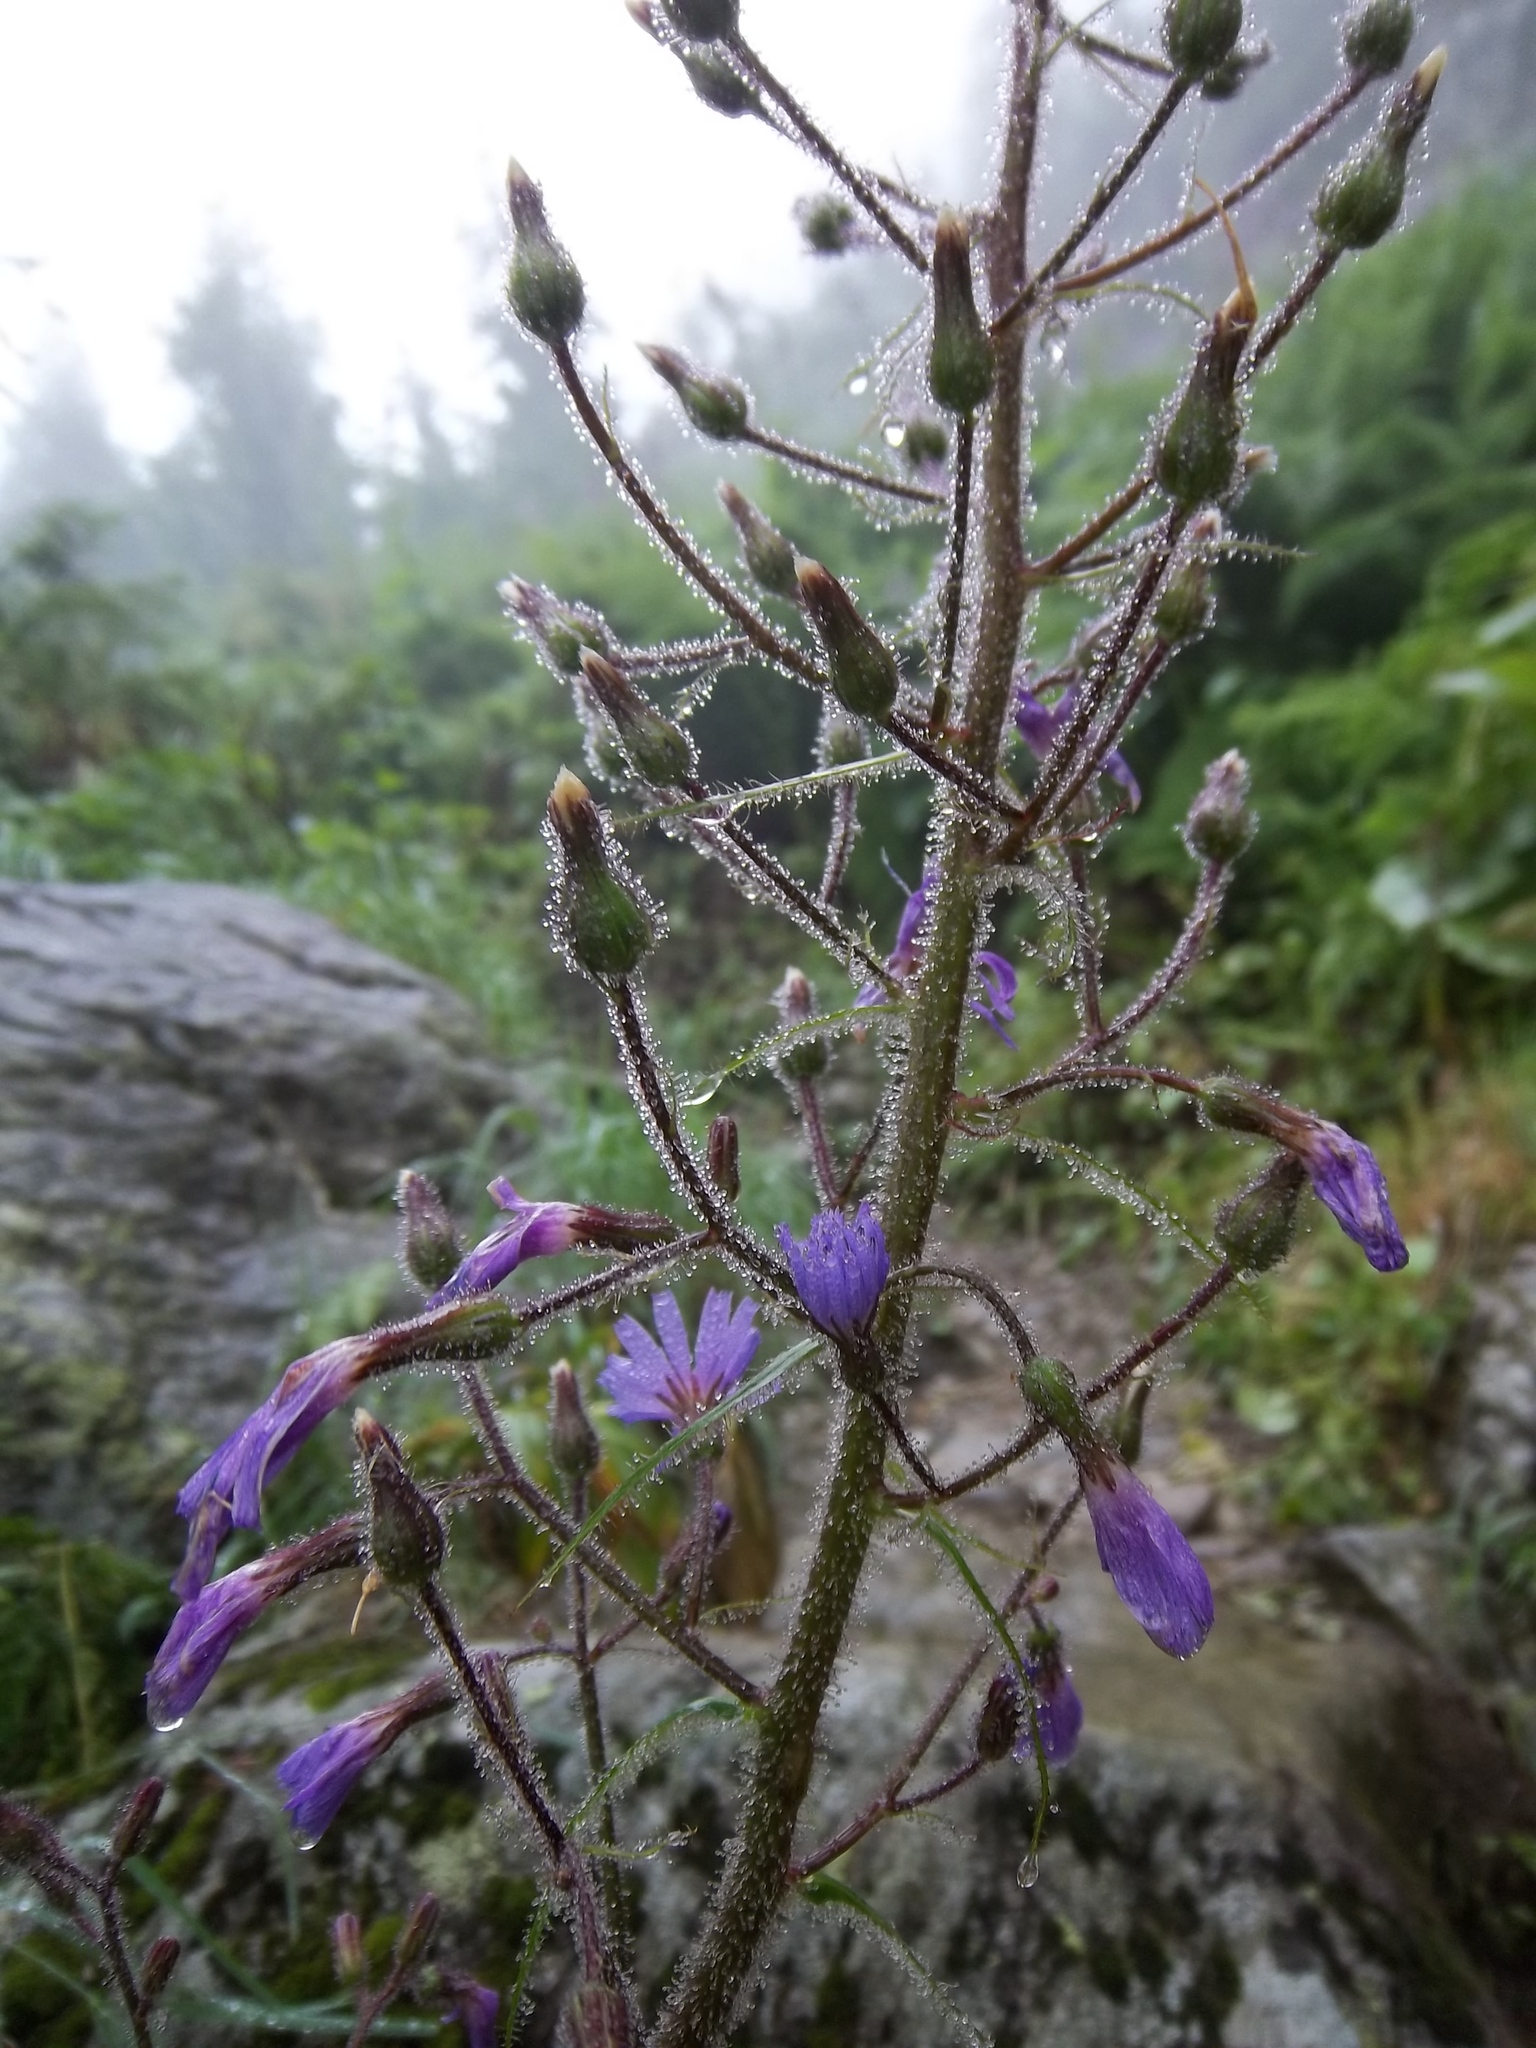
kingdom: Plantae
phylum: Tracheophyta
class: Magnoliopsida
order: Asterales
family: Asteraceae
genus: Cicerbita
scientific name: Cicerbita alpina
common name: Alpine blue-sow-thistle
